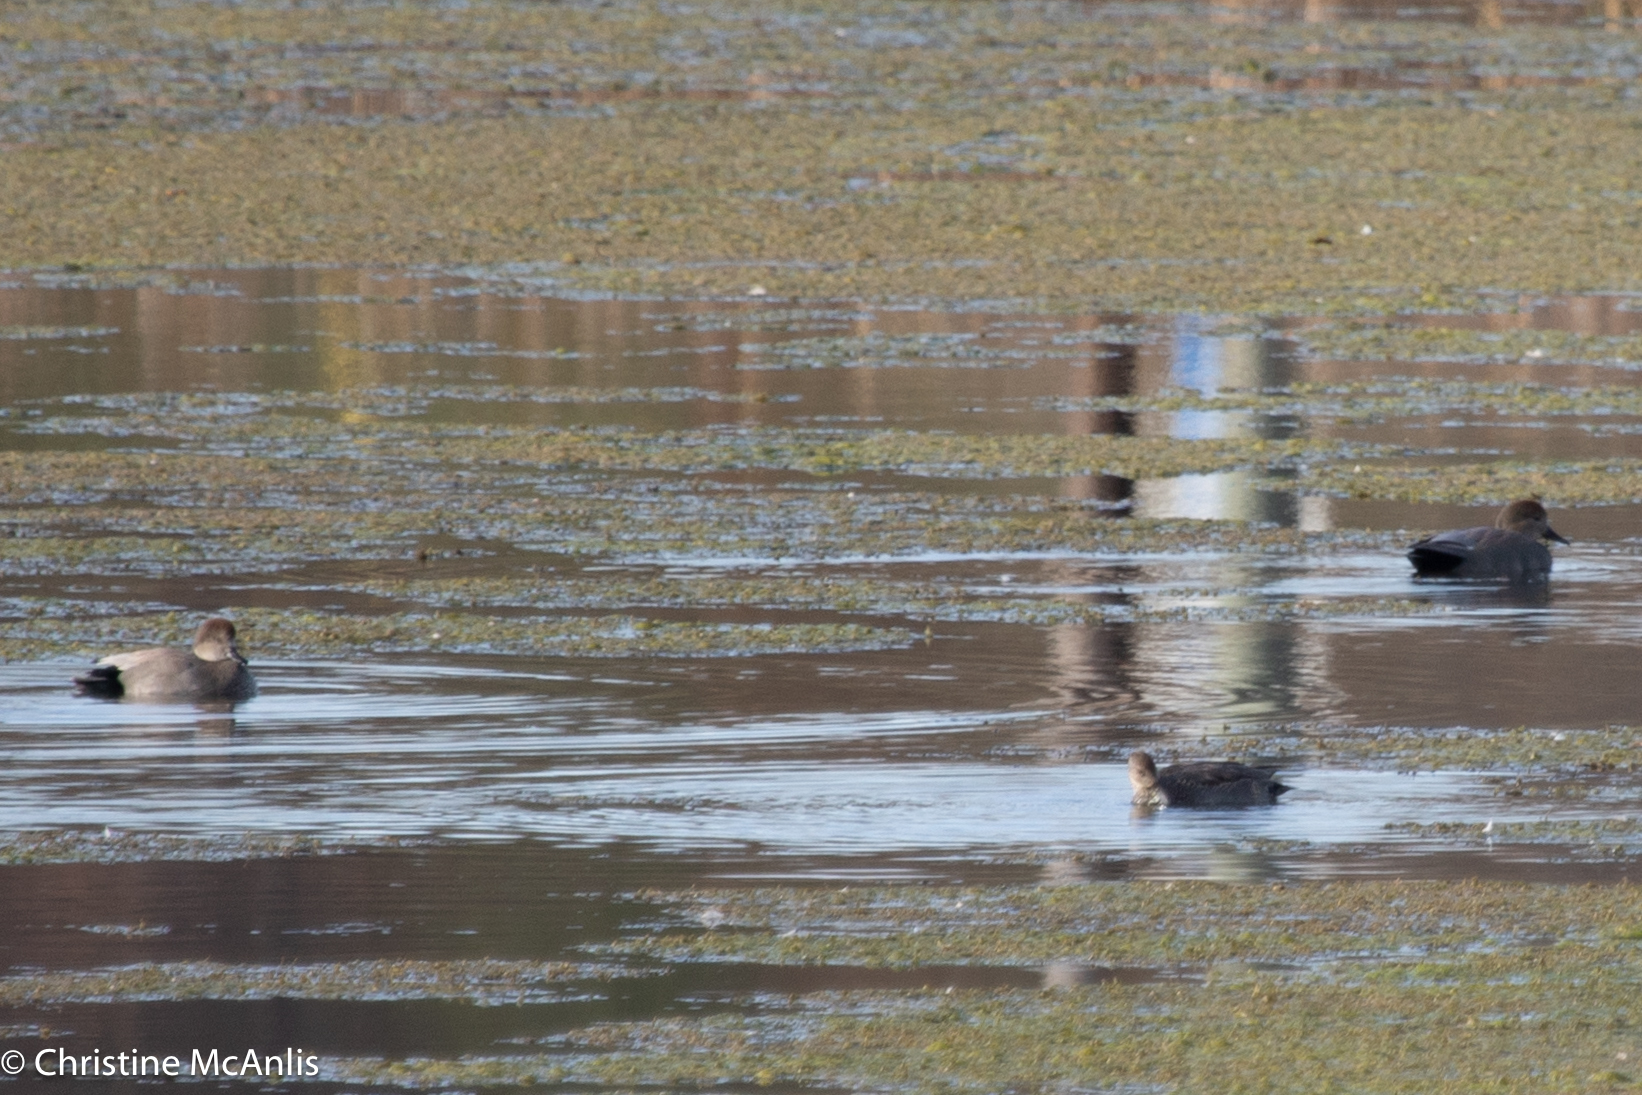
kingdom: Animalia
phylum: Chordata
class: Aves
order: Anseriformes
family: Anatidae
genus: Mareca
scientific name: Mareca strepera
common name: Gadwall
